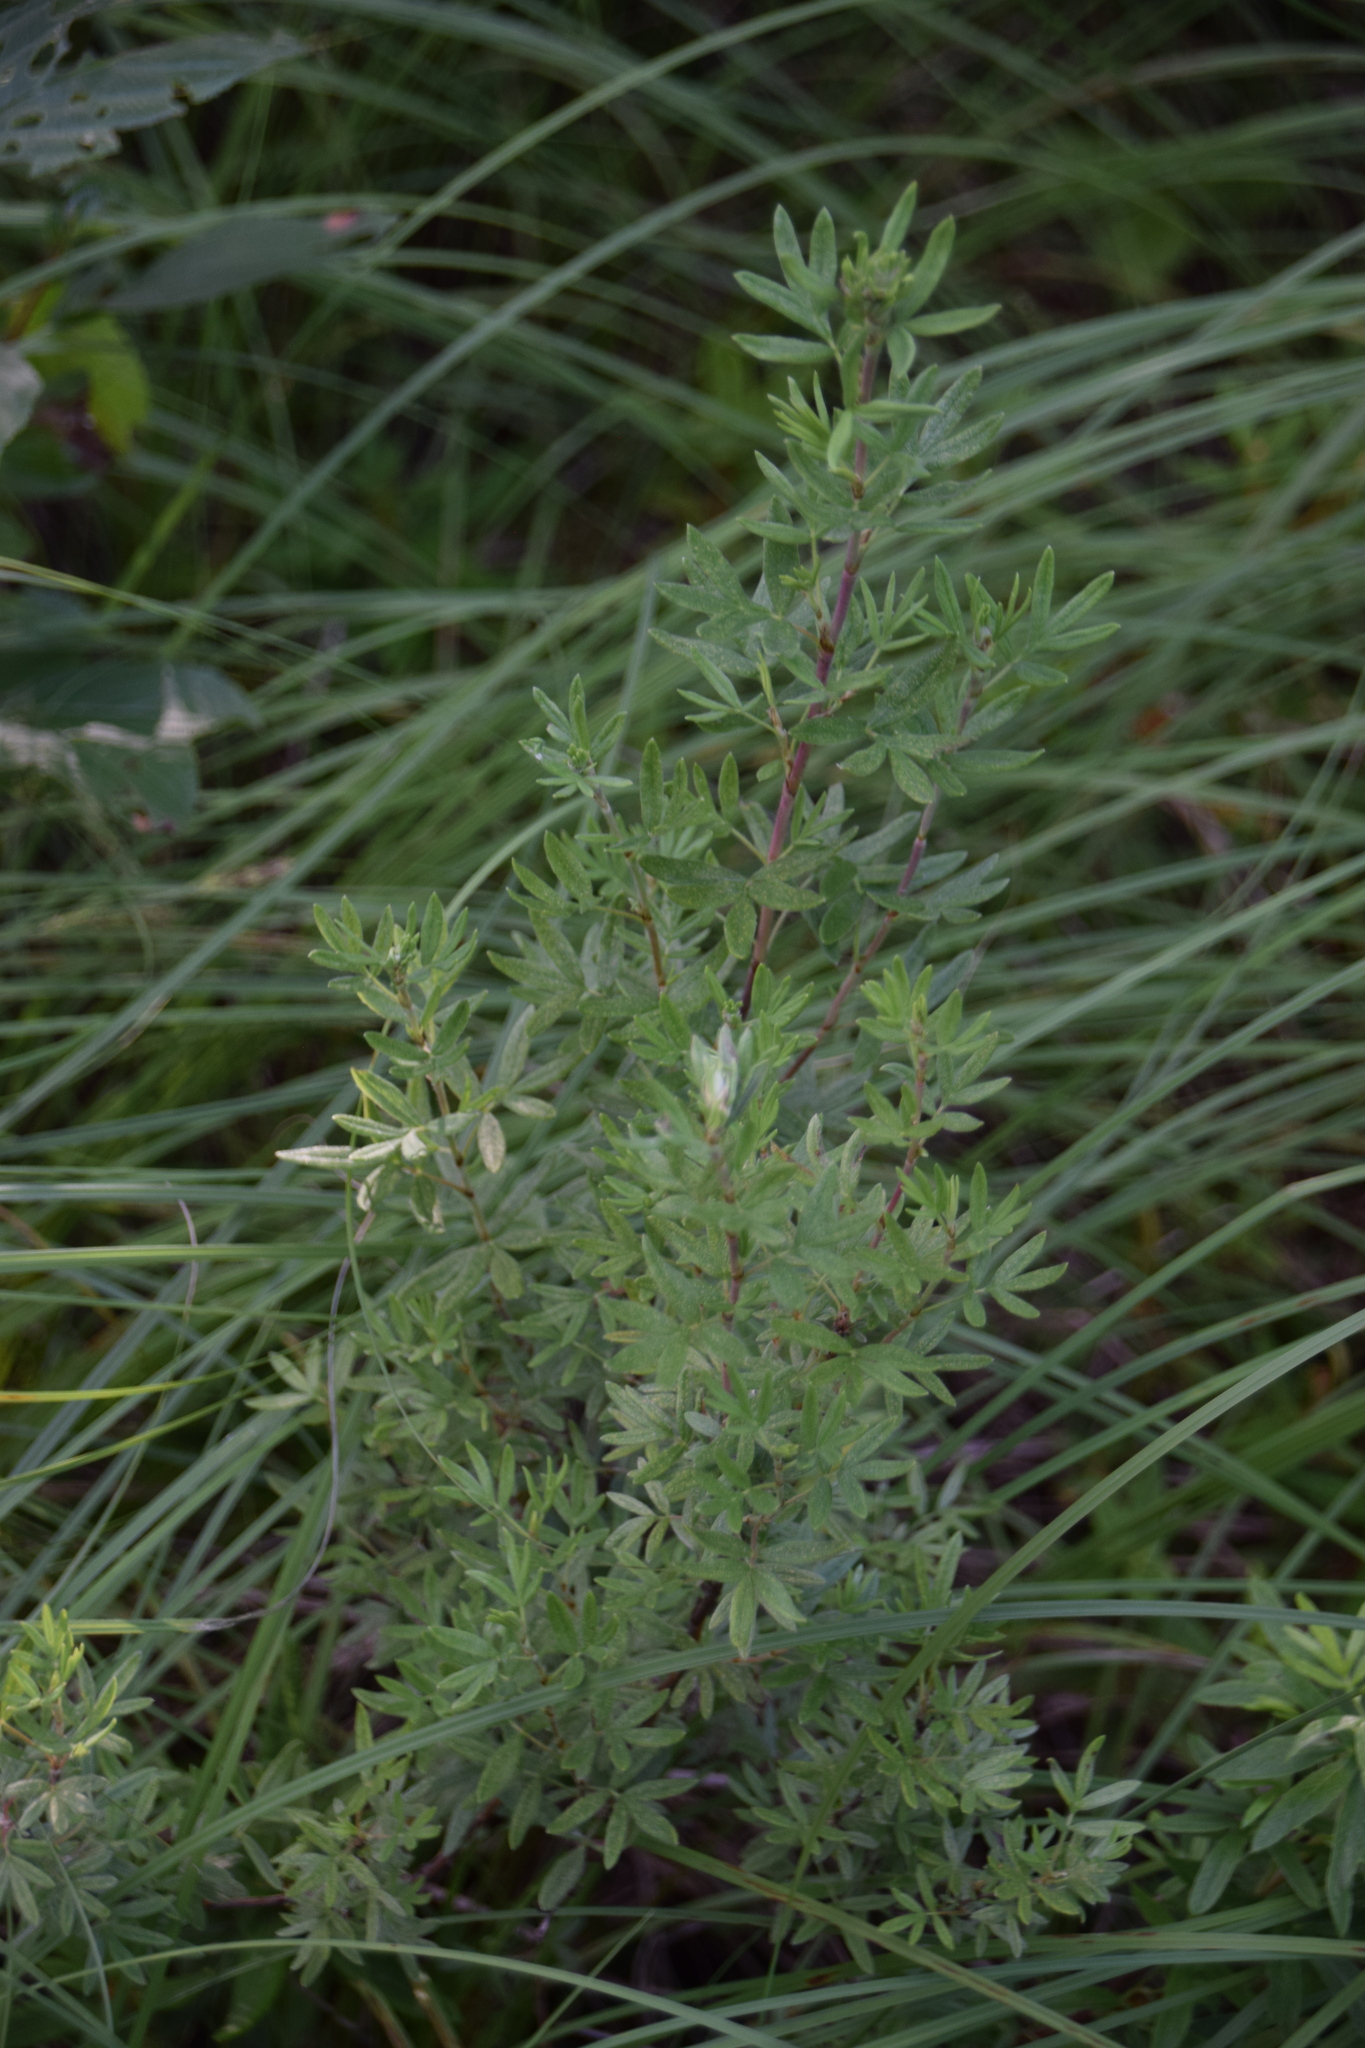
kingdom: Plantae
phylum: Tracheophyta
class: Magnoliopsida
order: Rosales
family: Rosaceae
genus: Dasiphora
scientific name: Dasiphora fruticosa
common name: Shrubby cinquefoil
